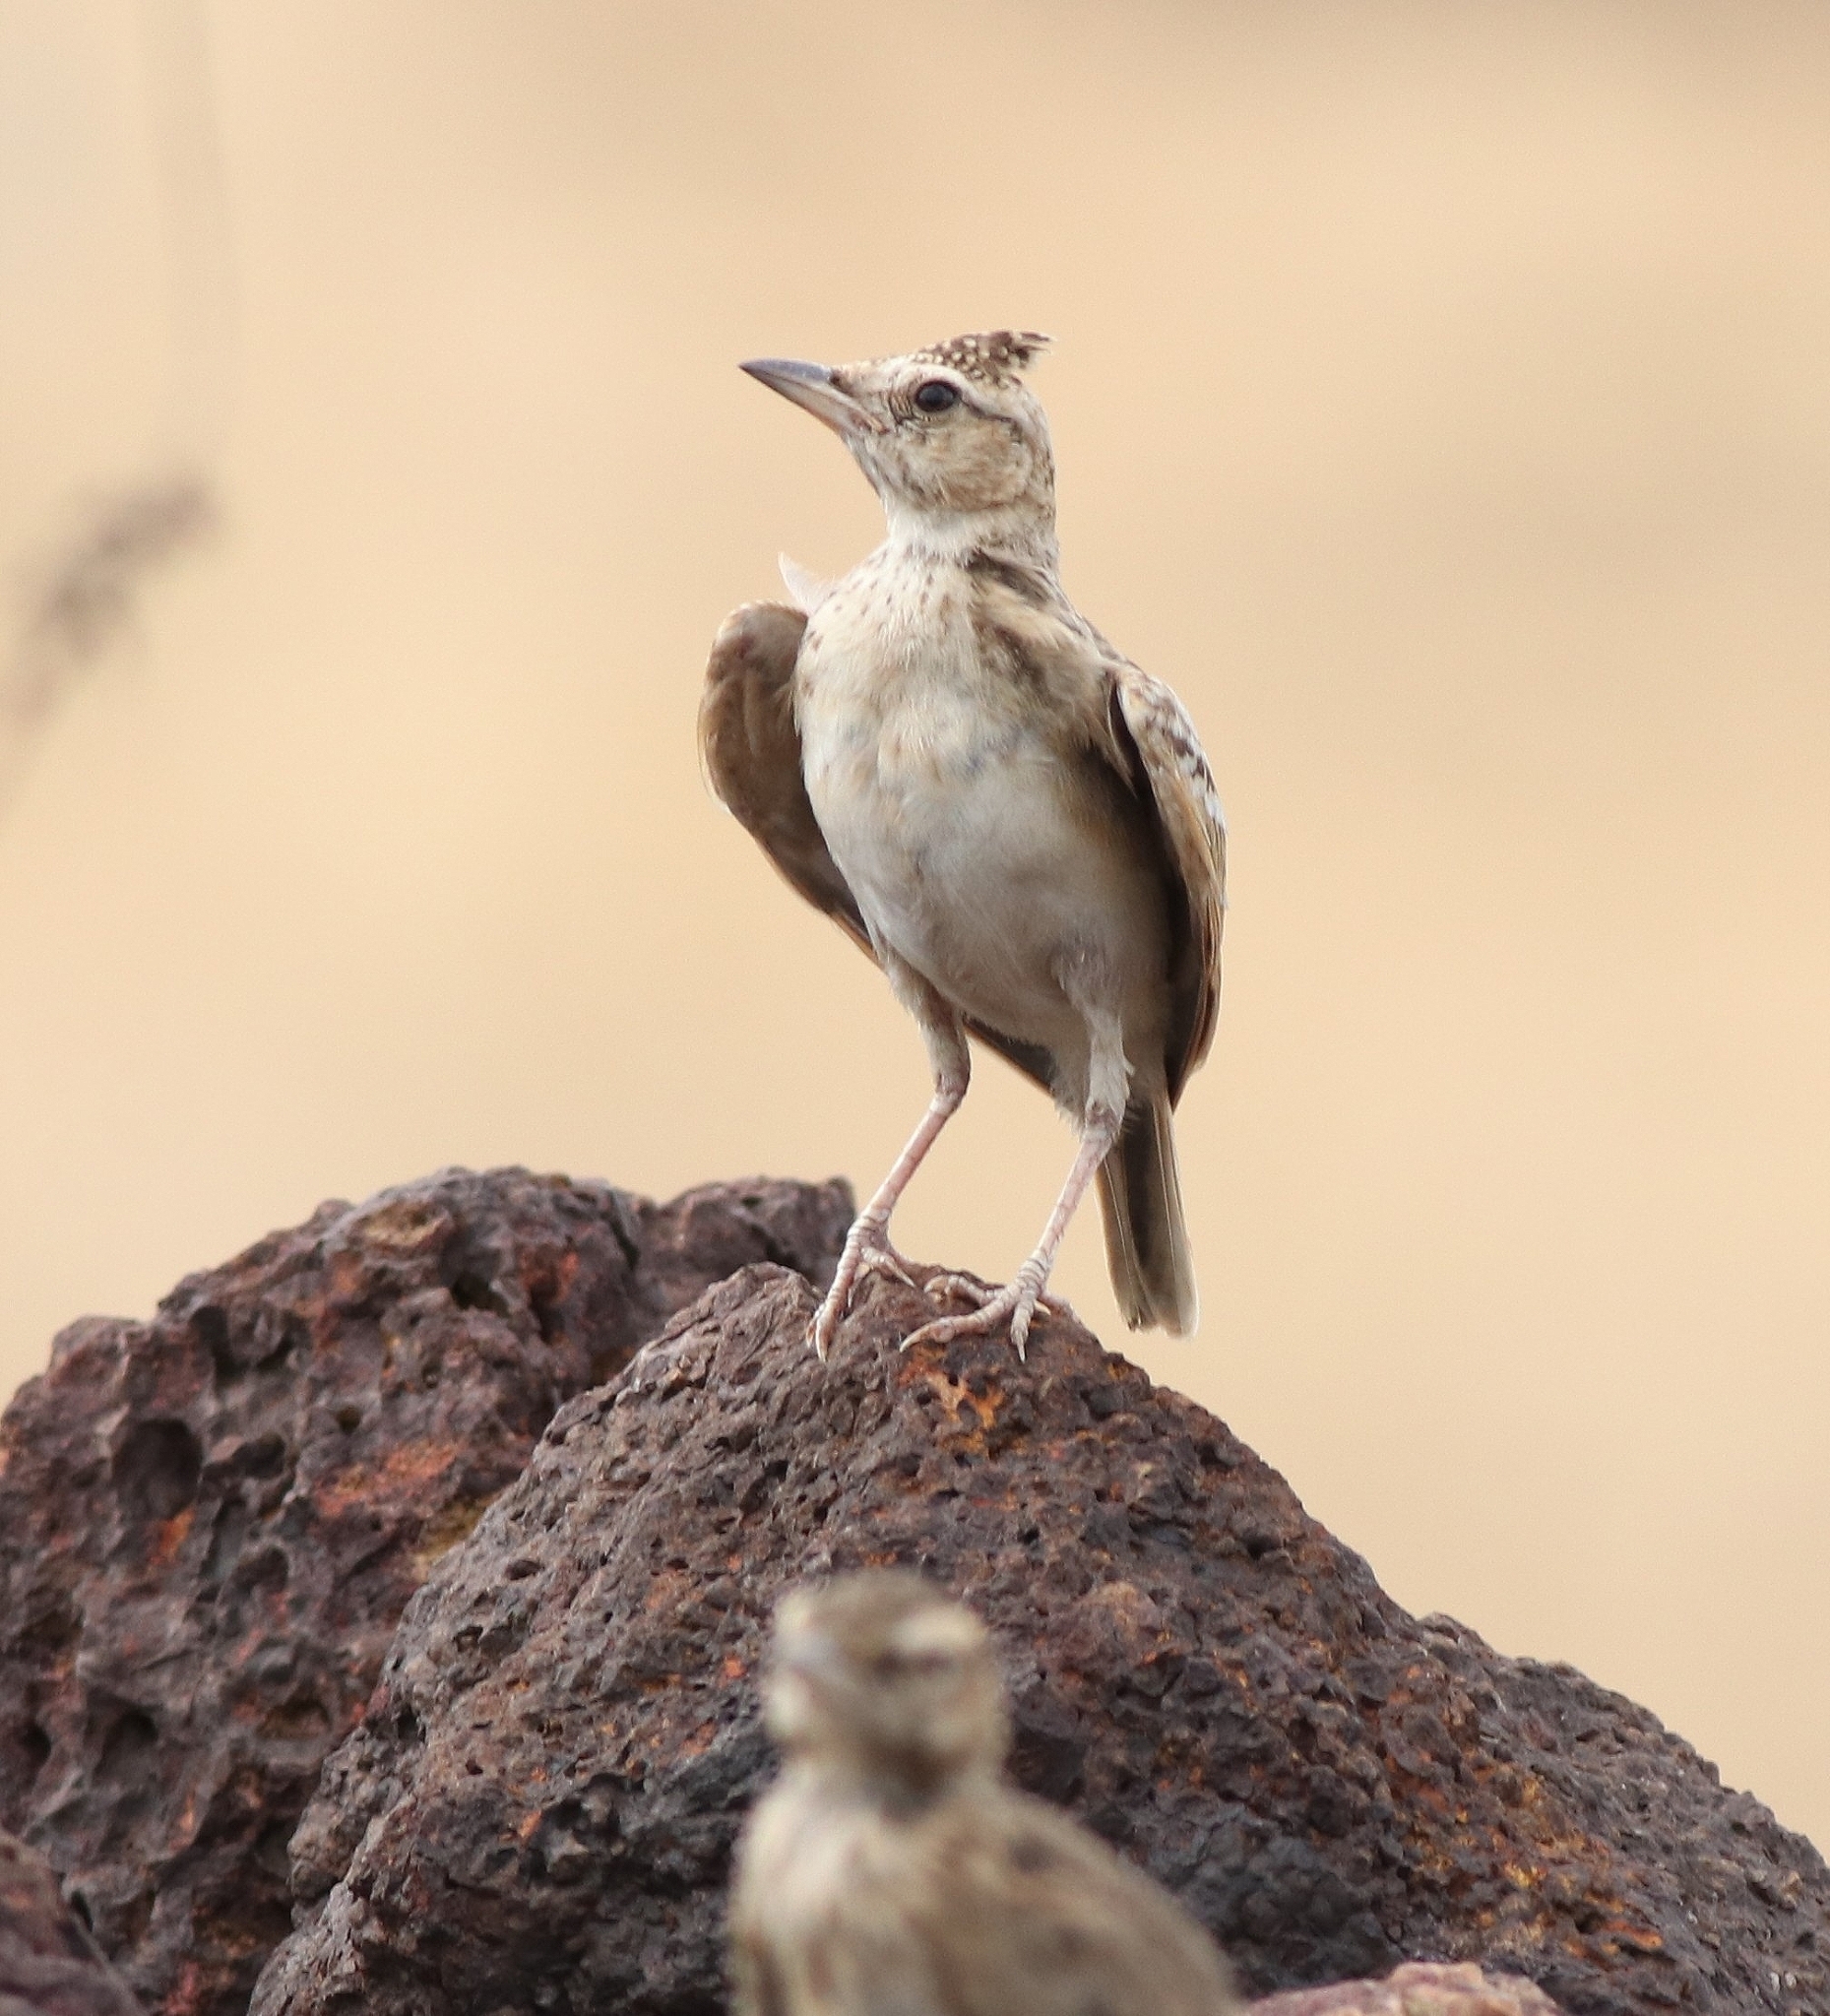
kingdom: Animalia
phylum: Chordata
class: Aves
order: Passeriformes
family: Alaudidae
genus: Galerida
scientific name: Galerida malabarica
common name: Malabar lark
